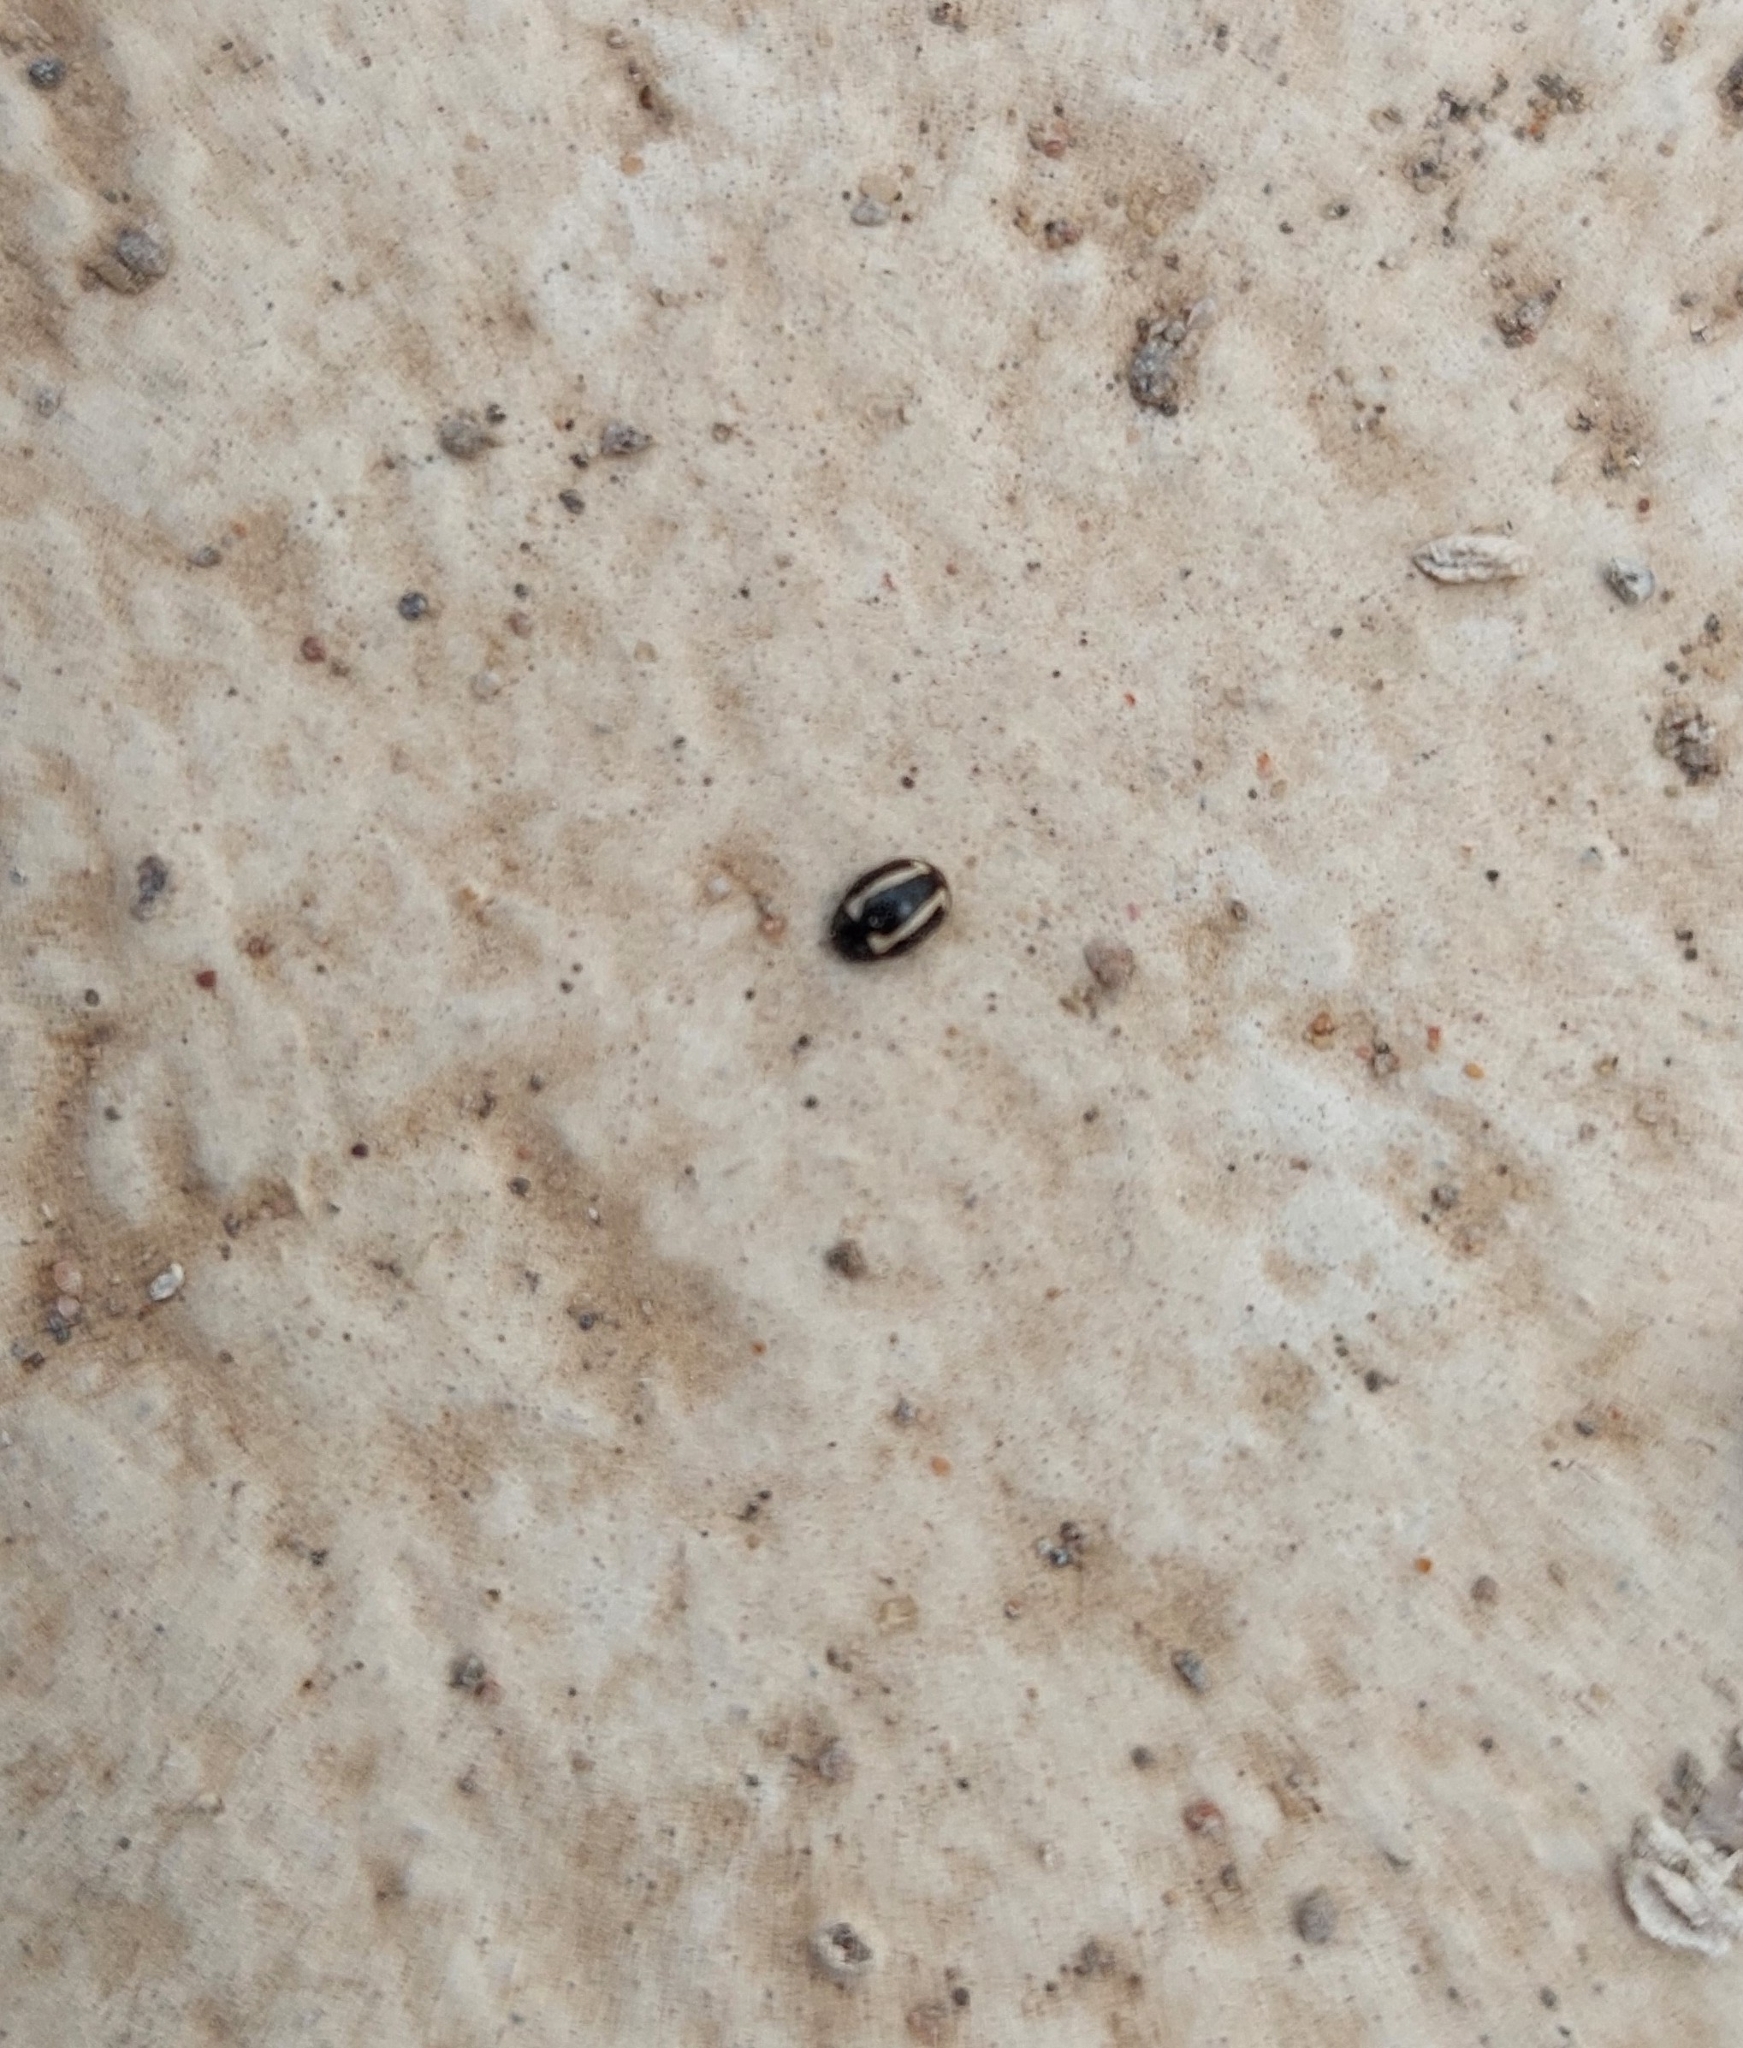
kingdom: Animalia
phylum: Arthropoda
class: Insecta
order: Coleoptera
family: Coccinellidae
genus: Hyperaspis
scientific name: Hyperaspis
